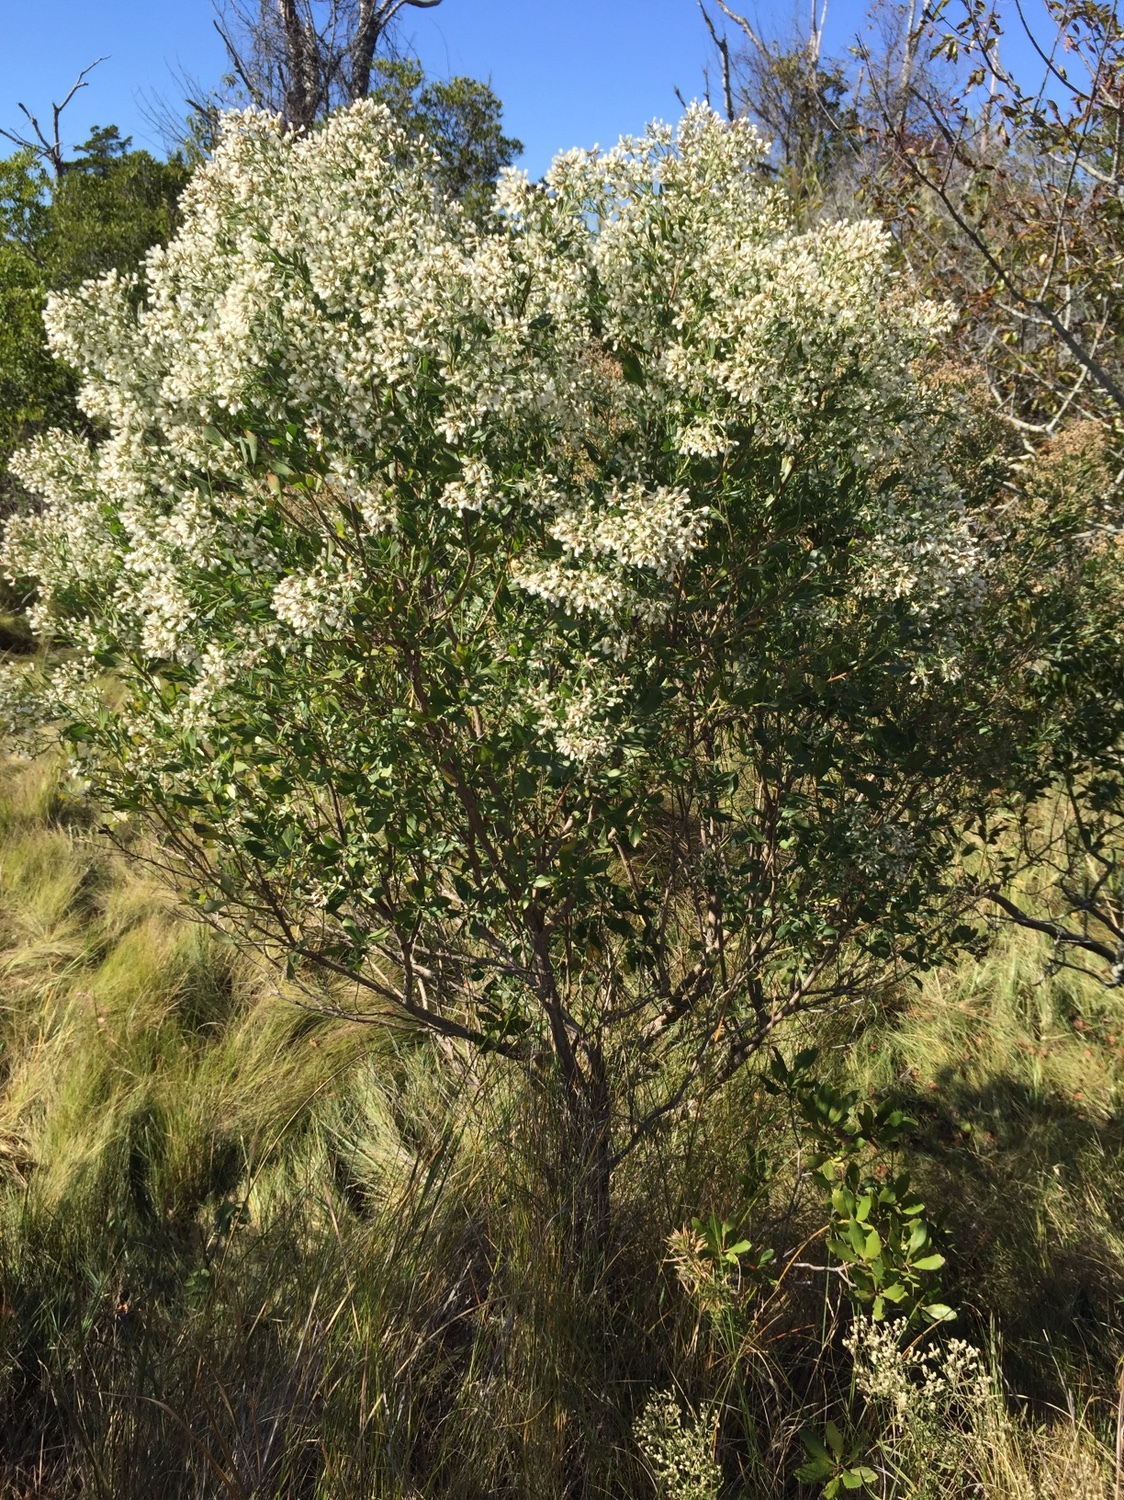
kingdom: Plantae
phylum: Tracheophyta
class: Magnoliopsida
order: Asterales
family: Asteraceae
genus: Baccharis
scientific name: Baccharis halimifolia
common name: Eastern baccharis
